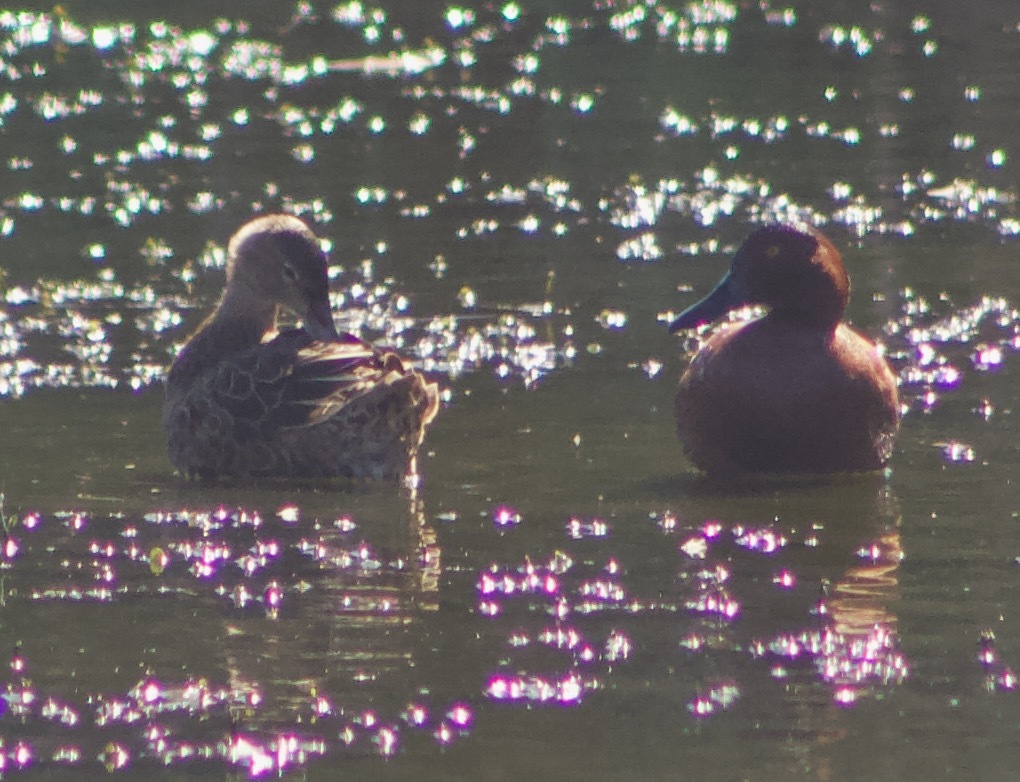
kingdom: Animalia
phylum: Chordata
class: Aves
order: Anseriformes
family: Anatidae
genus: Spatula
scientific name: Spatula cyanoptera
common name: Cinnamon teal
